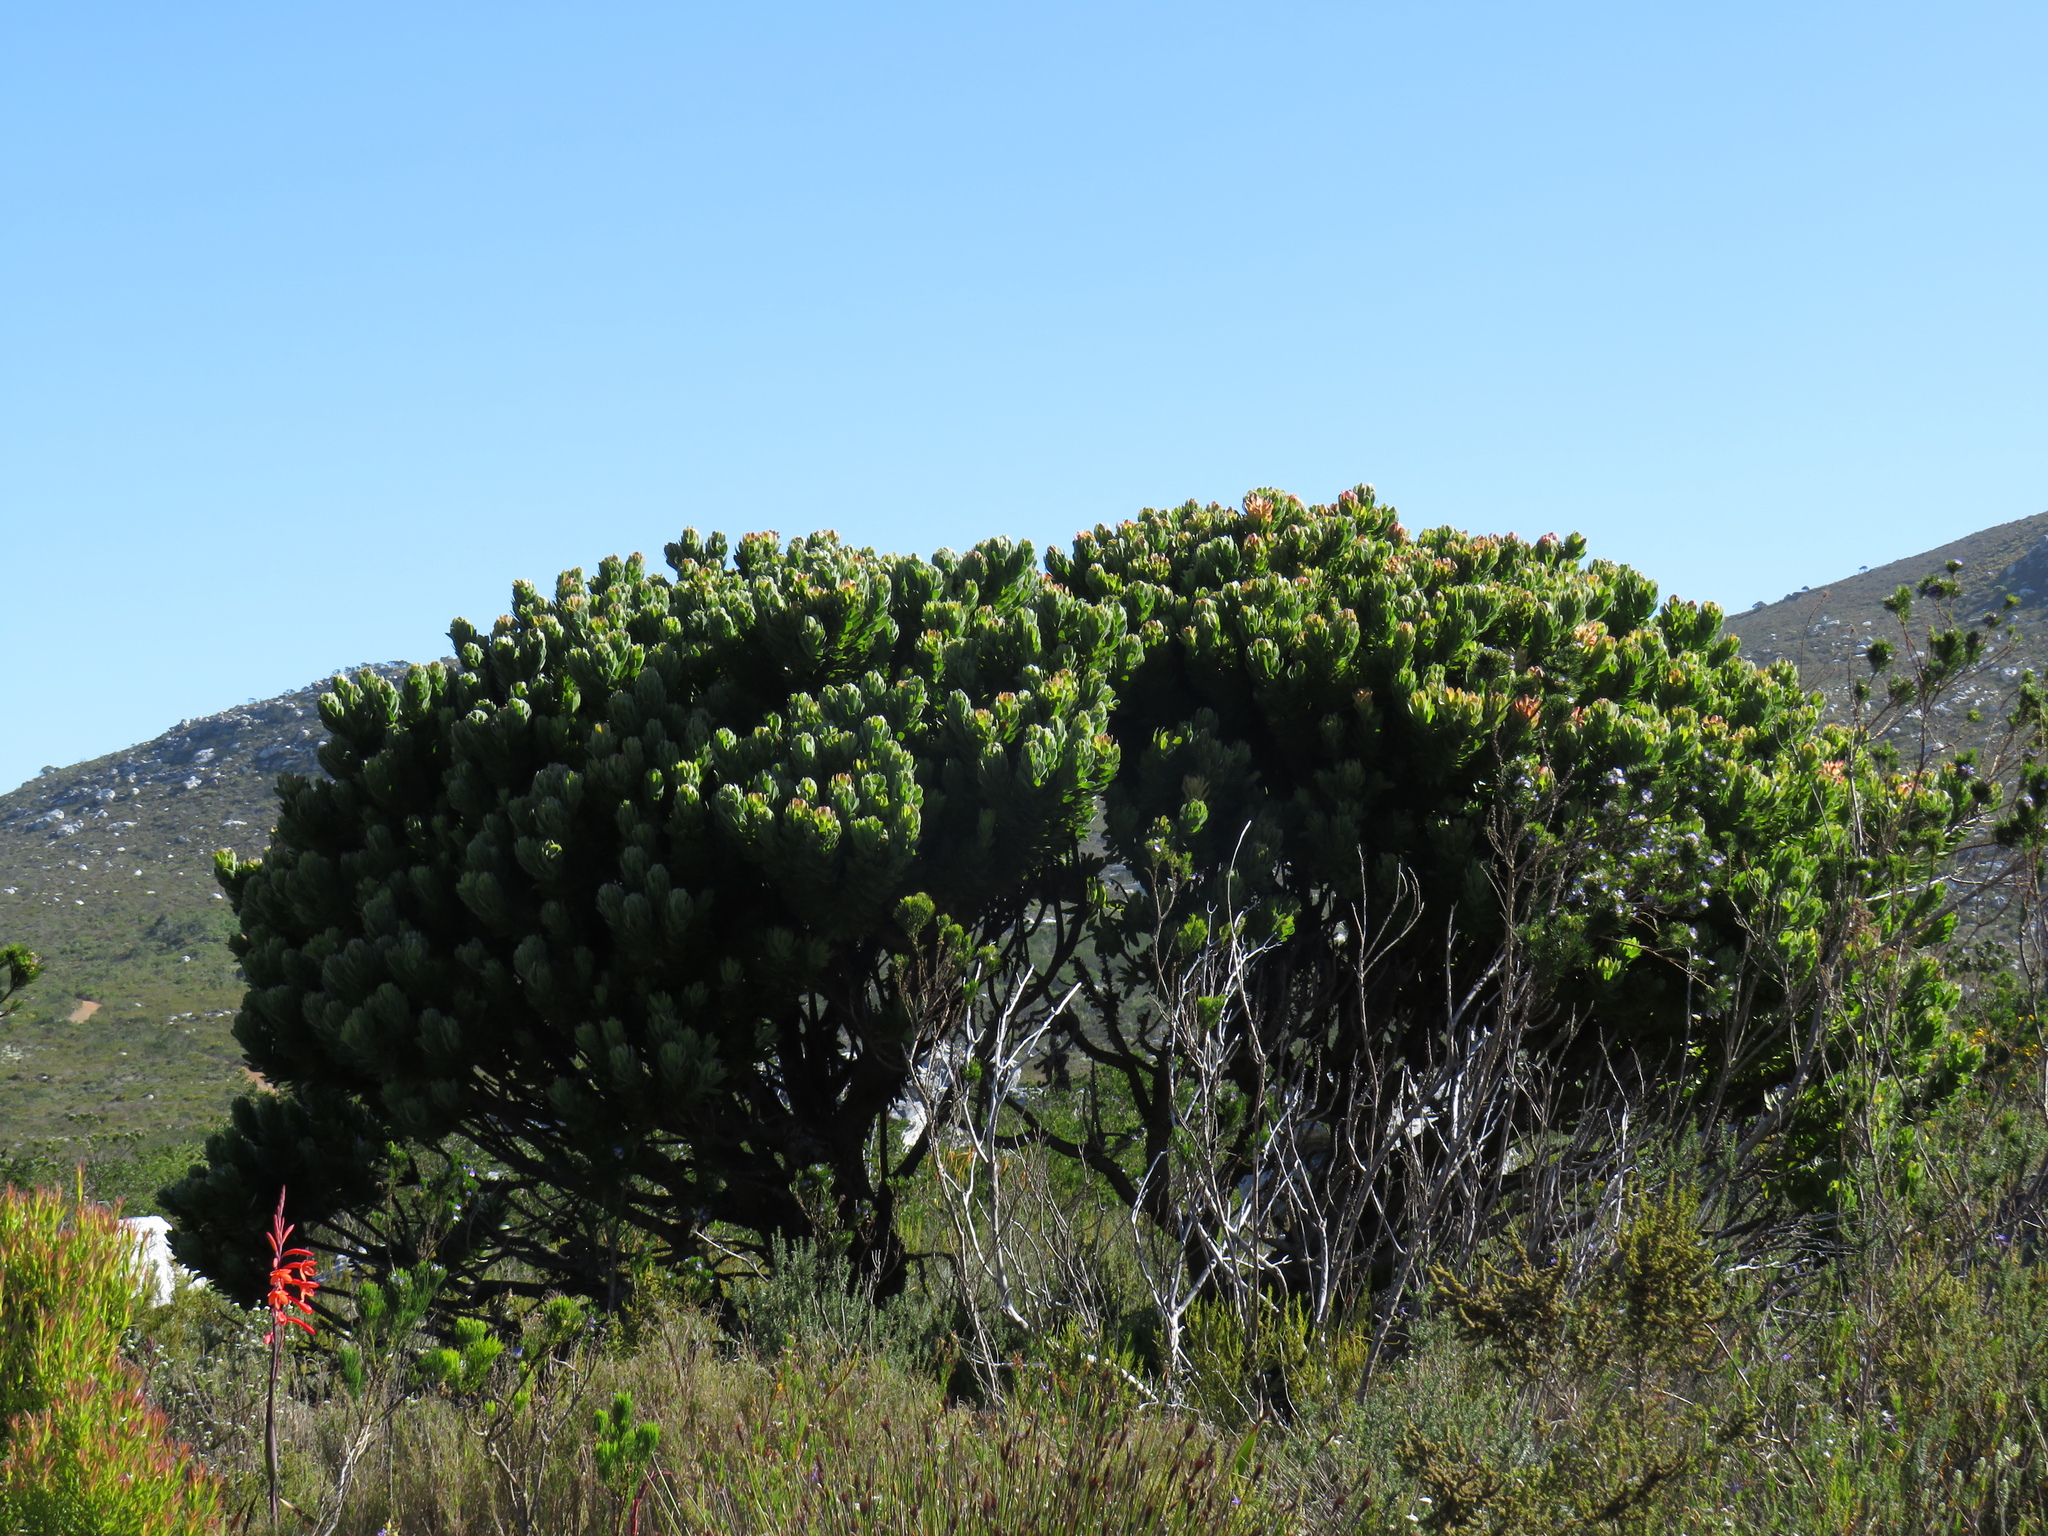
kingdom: Plantae
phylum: Tracheophyta
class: Magnoliopsida
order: Proteales
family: Proteaceae
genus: Mimetes
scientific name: Mimetes fimbriifolius
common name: Fringed bottlebrush
